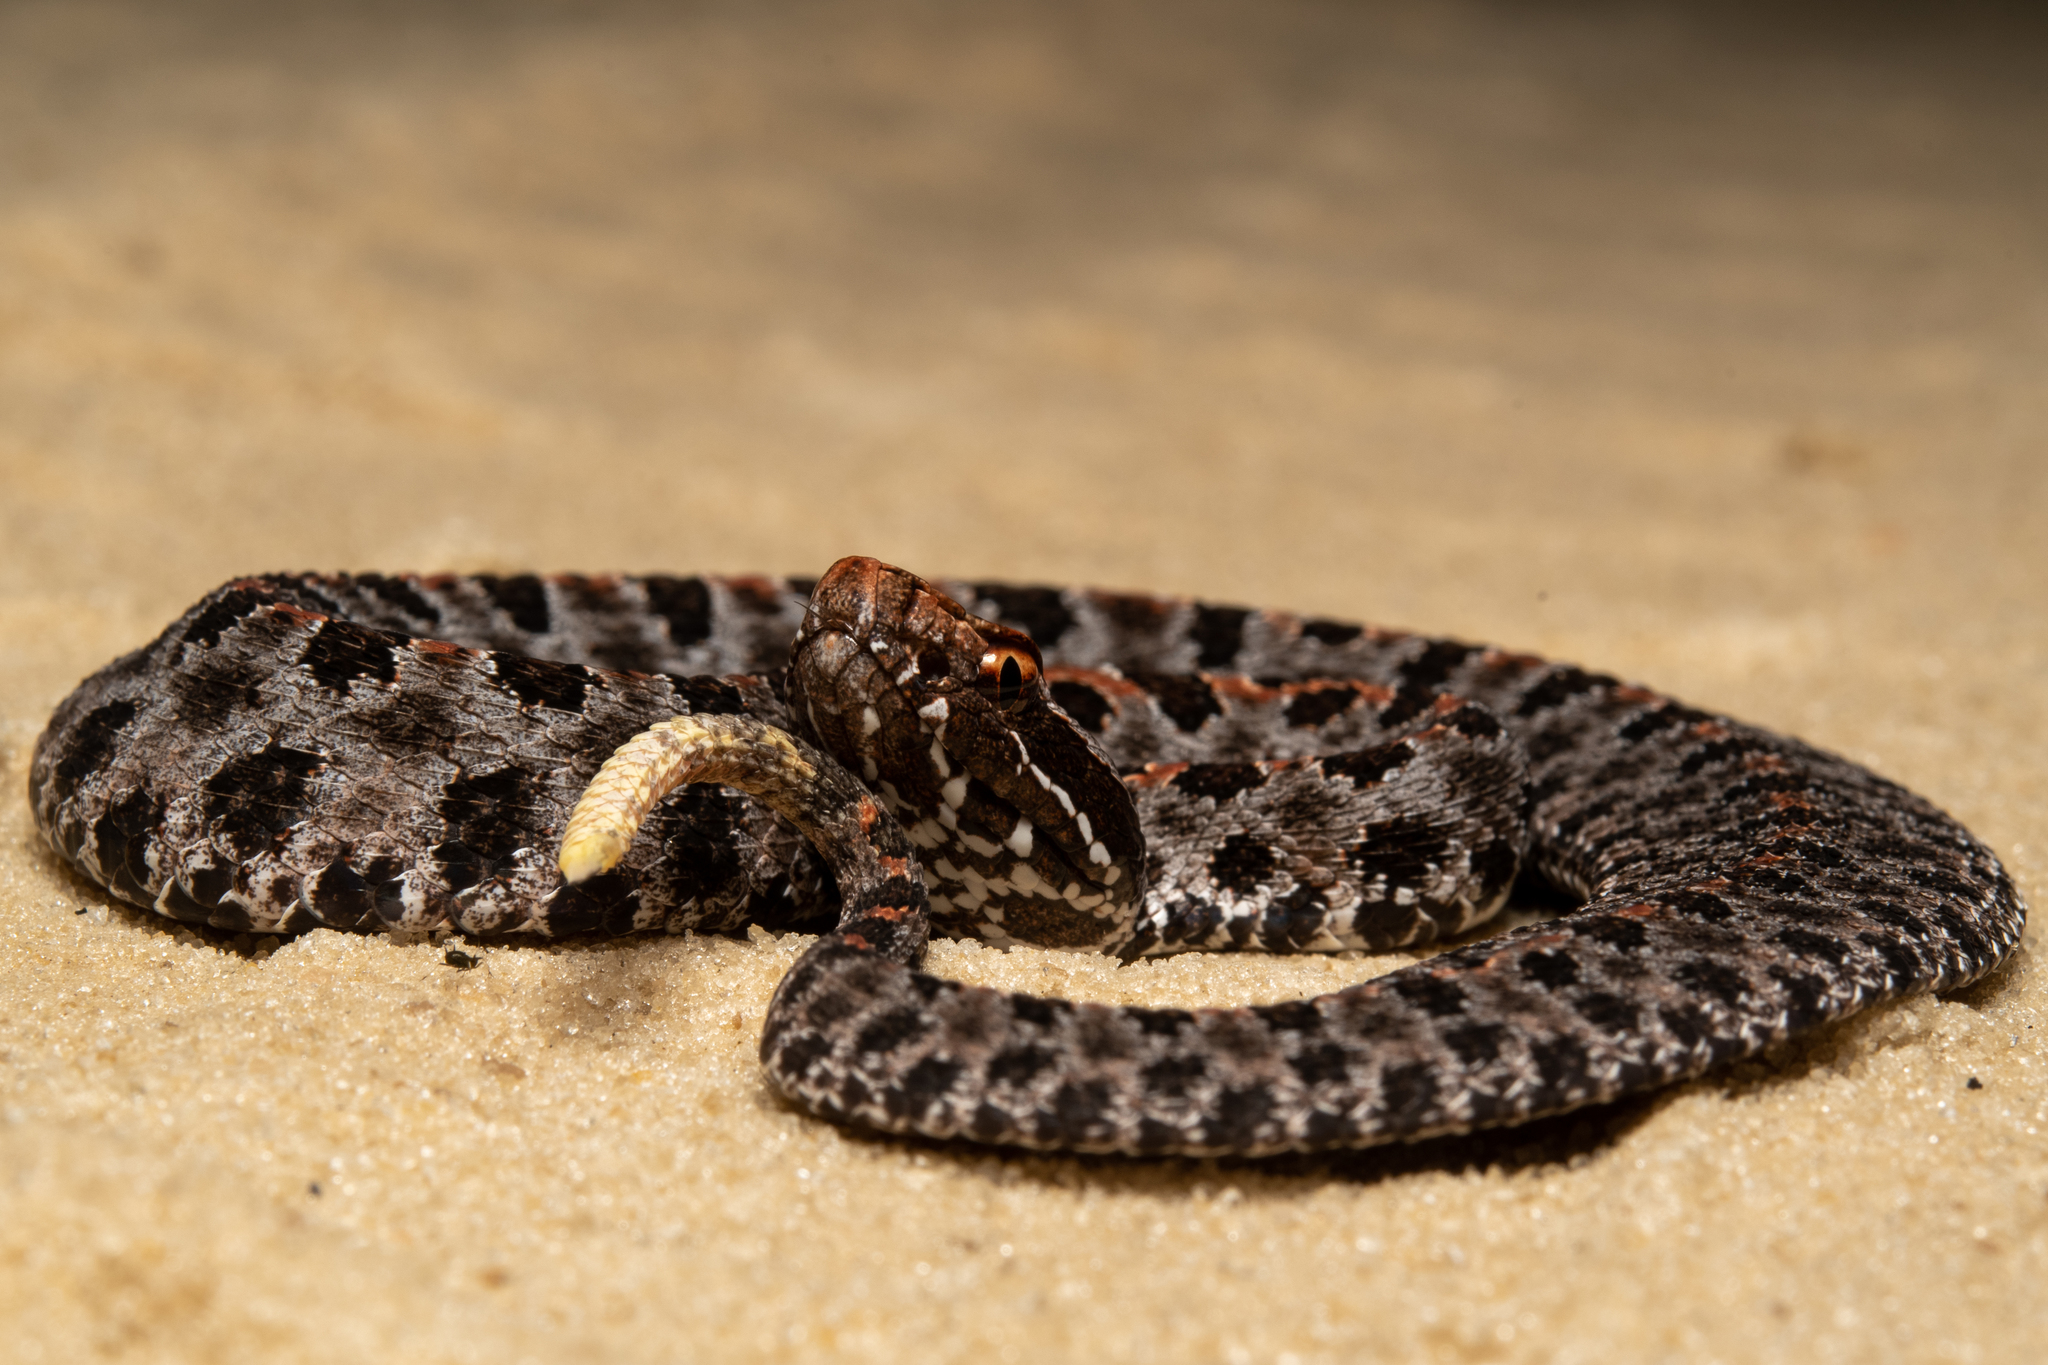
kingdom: Animalia
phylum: Chordata
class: Squamata
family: Viperidae
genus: Sistrurus
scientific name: Sistrurus miliarius
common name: Pygmy rattlesnake
